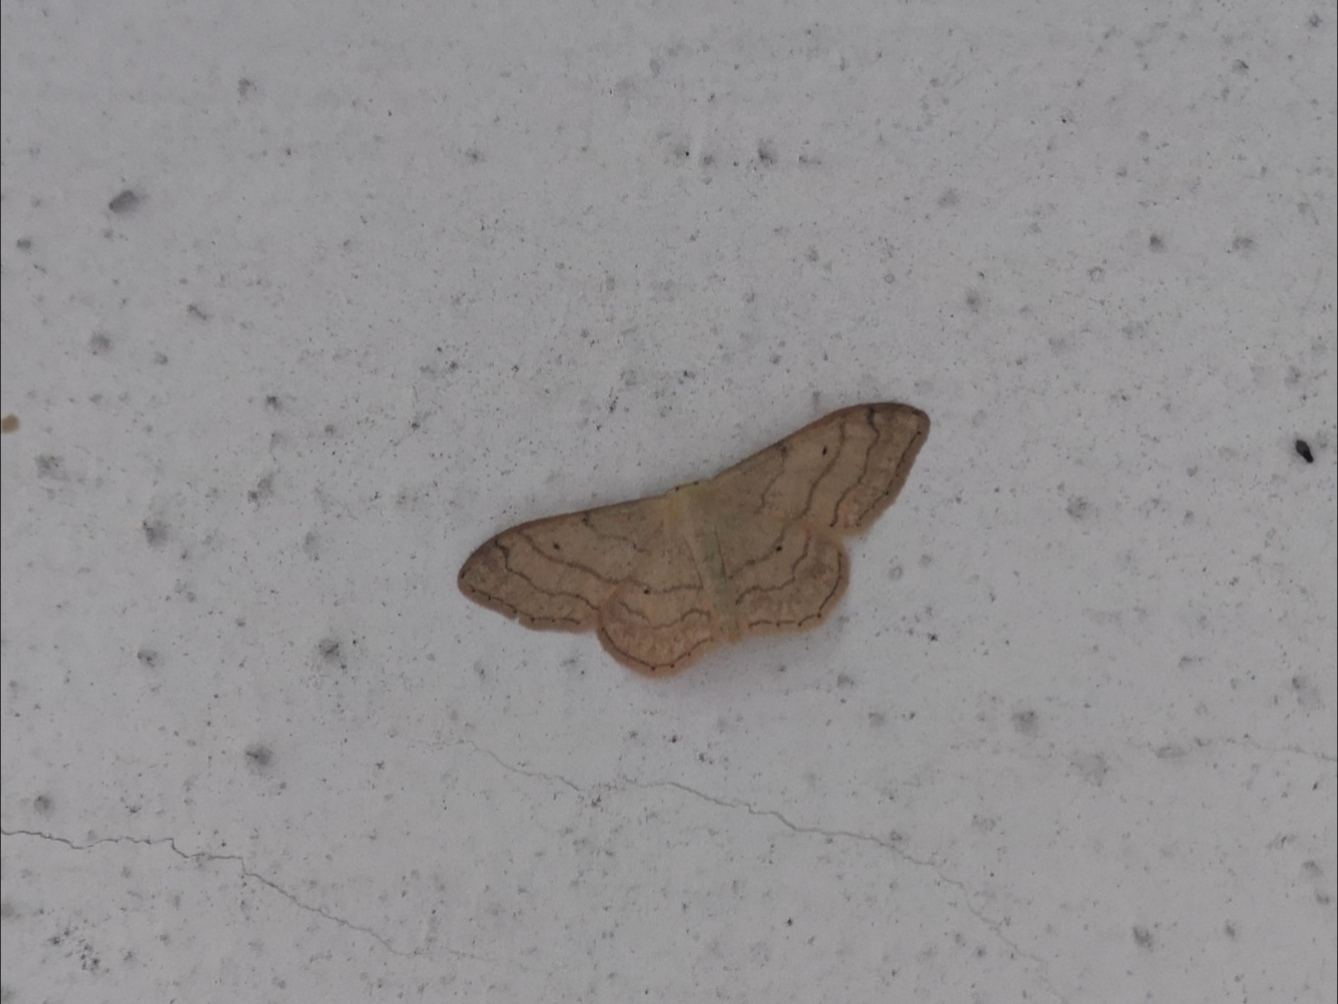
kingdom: Animalia
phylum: Arthropoda
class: Insecta
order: Lepidoptera
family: Geometridae
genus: Idaea
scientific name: Idaea aversata
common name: Riband wave
